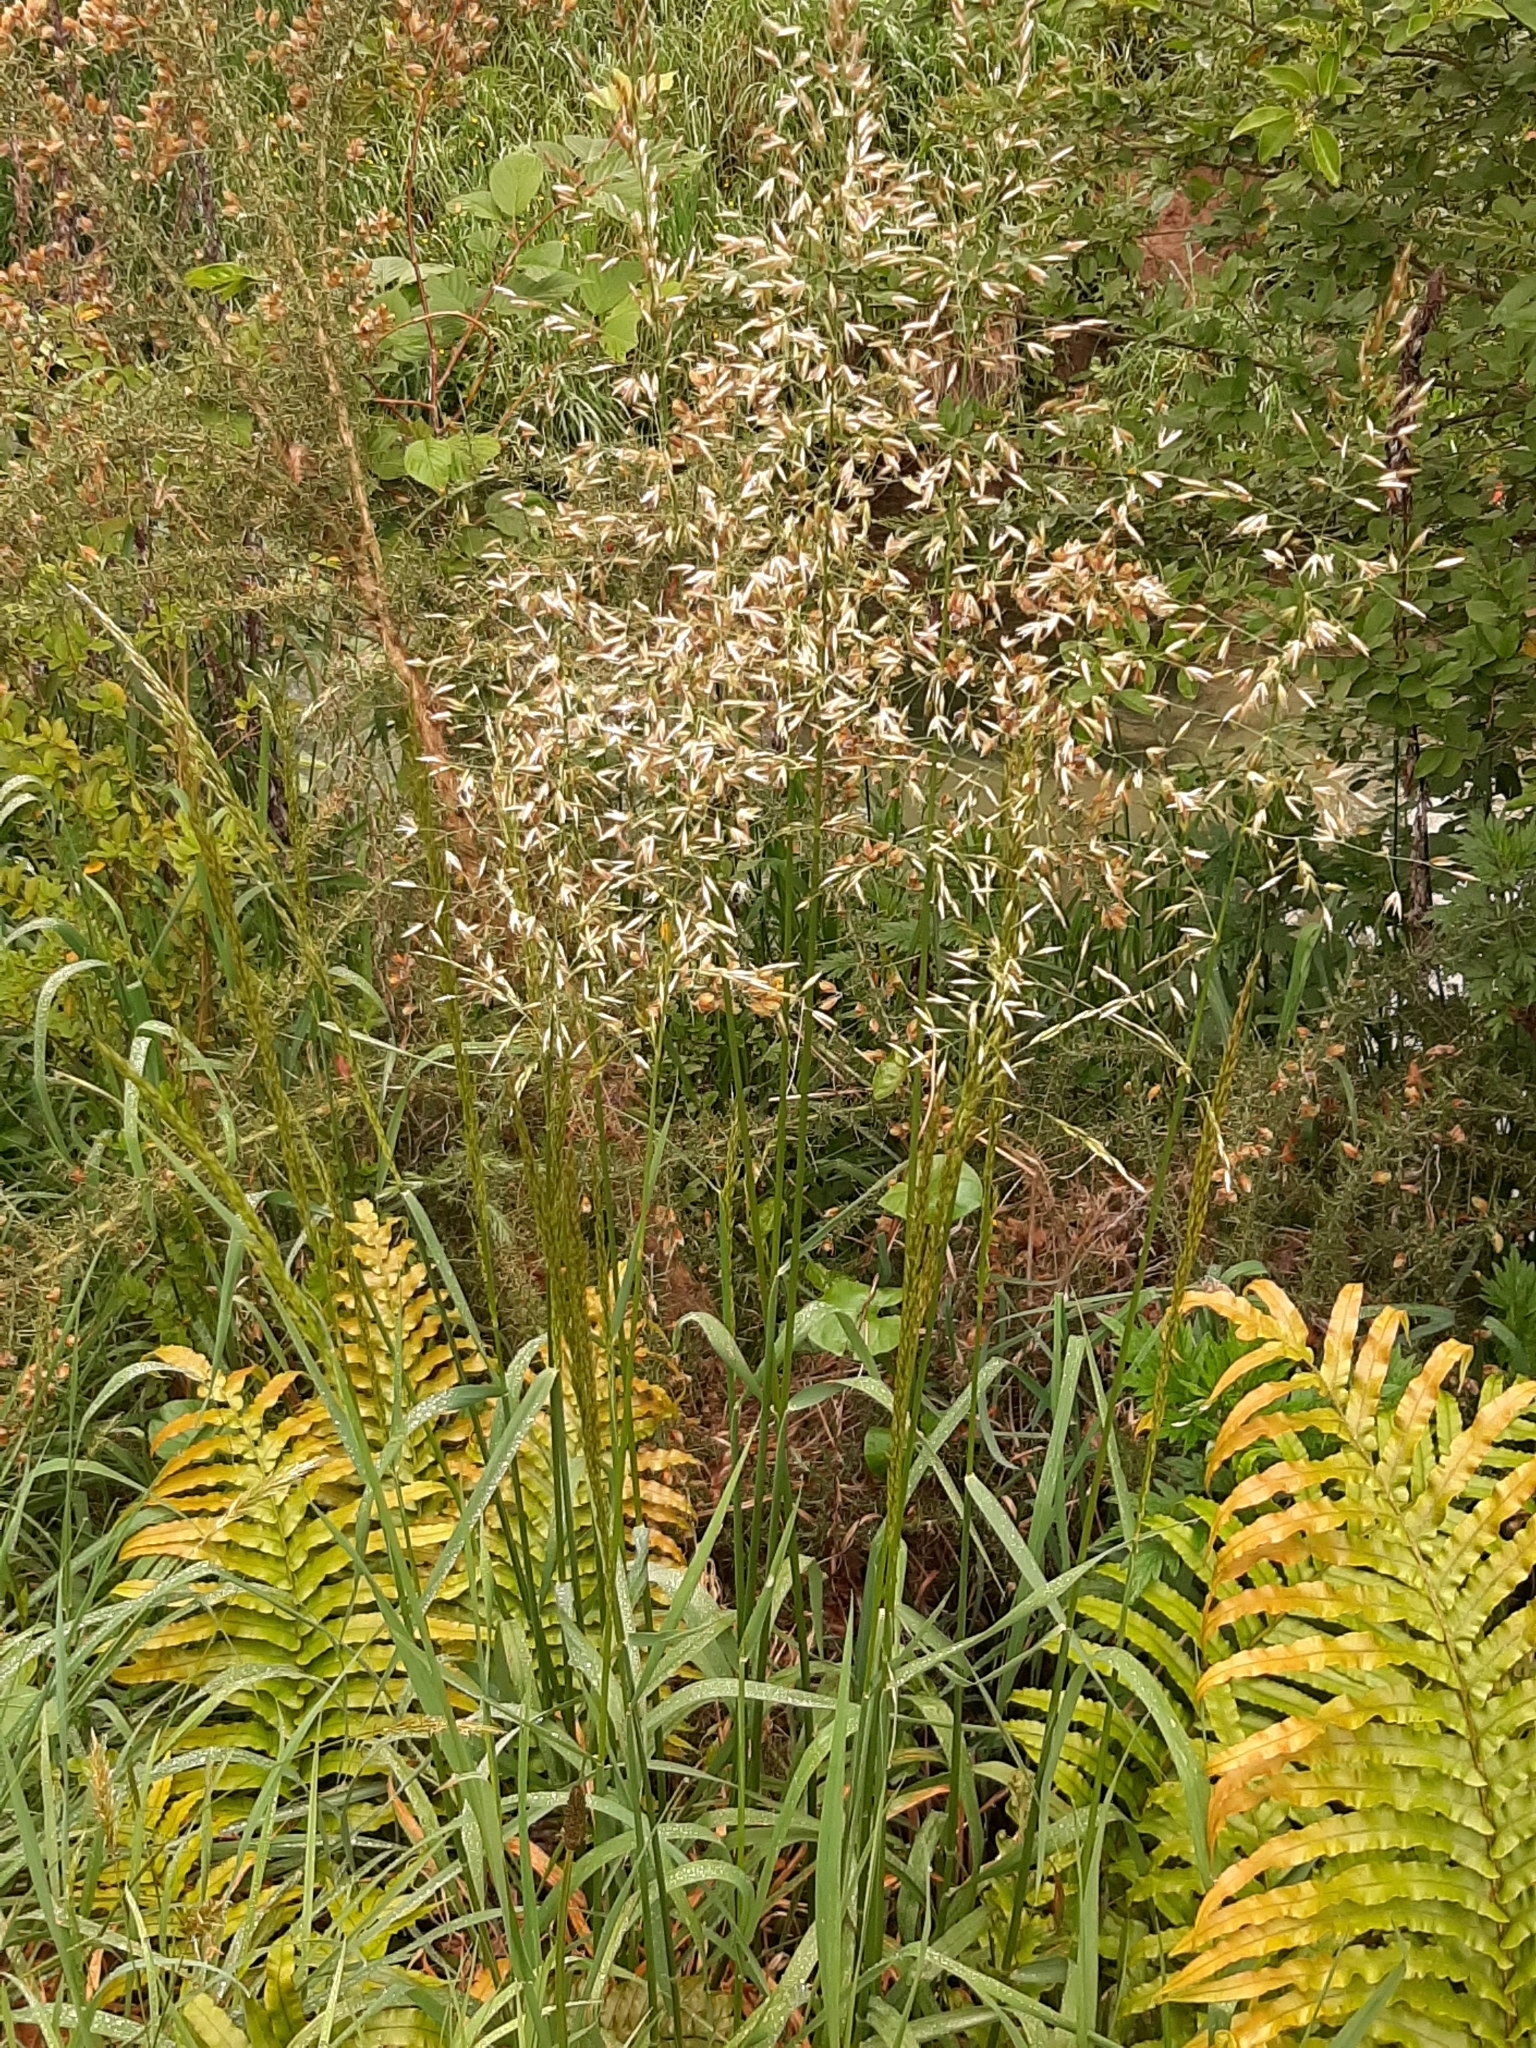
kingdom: Plantae
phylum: Tracheophyta
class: Liliopsida
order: Poales
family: Poaceae
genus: Arrhenatherum
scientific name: Arrhenatherum elatius
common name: Tall oatgrass
